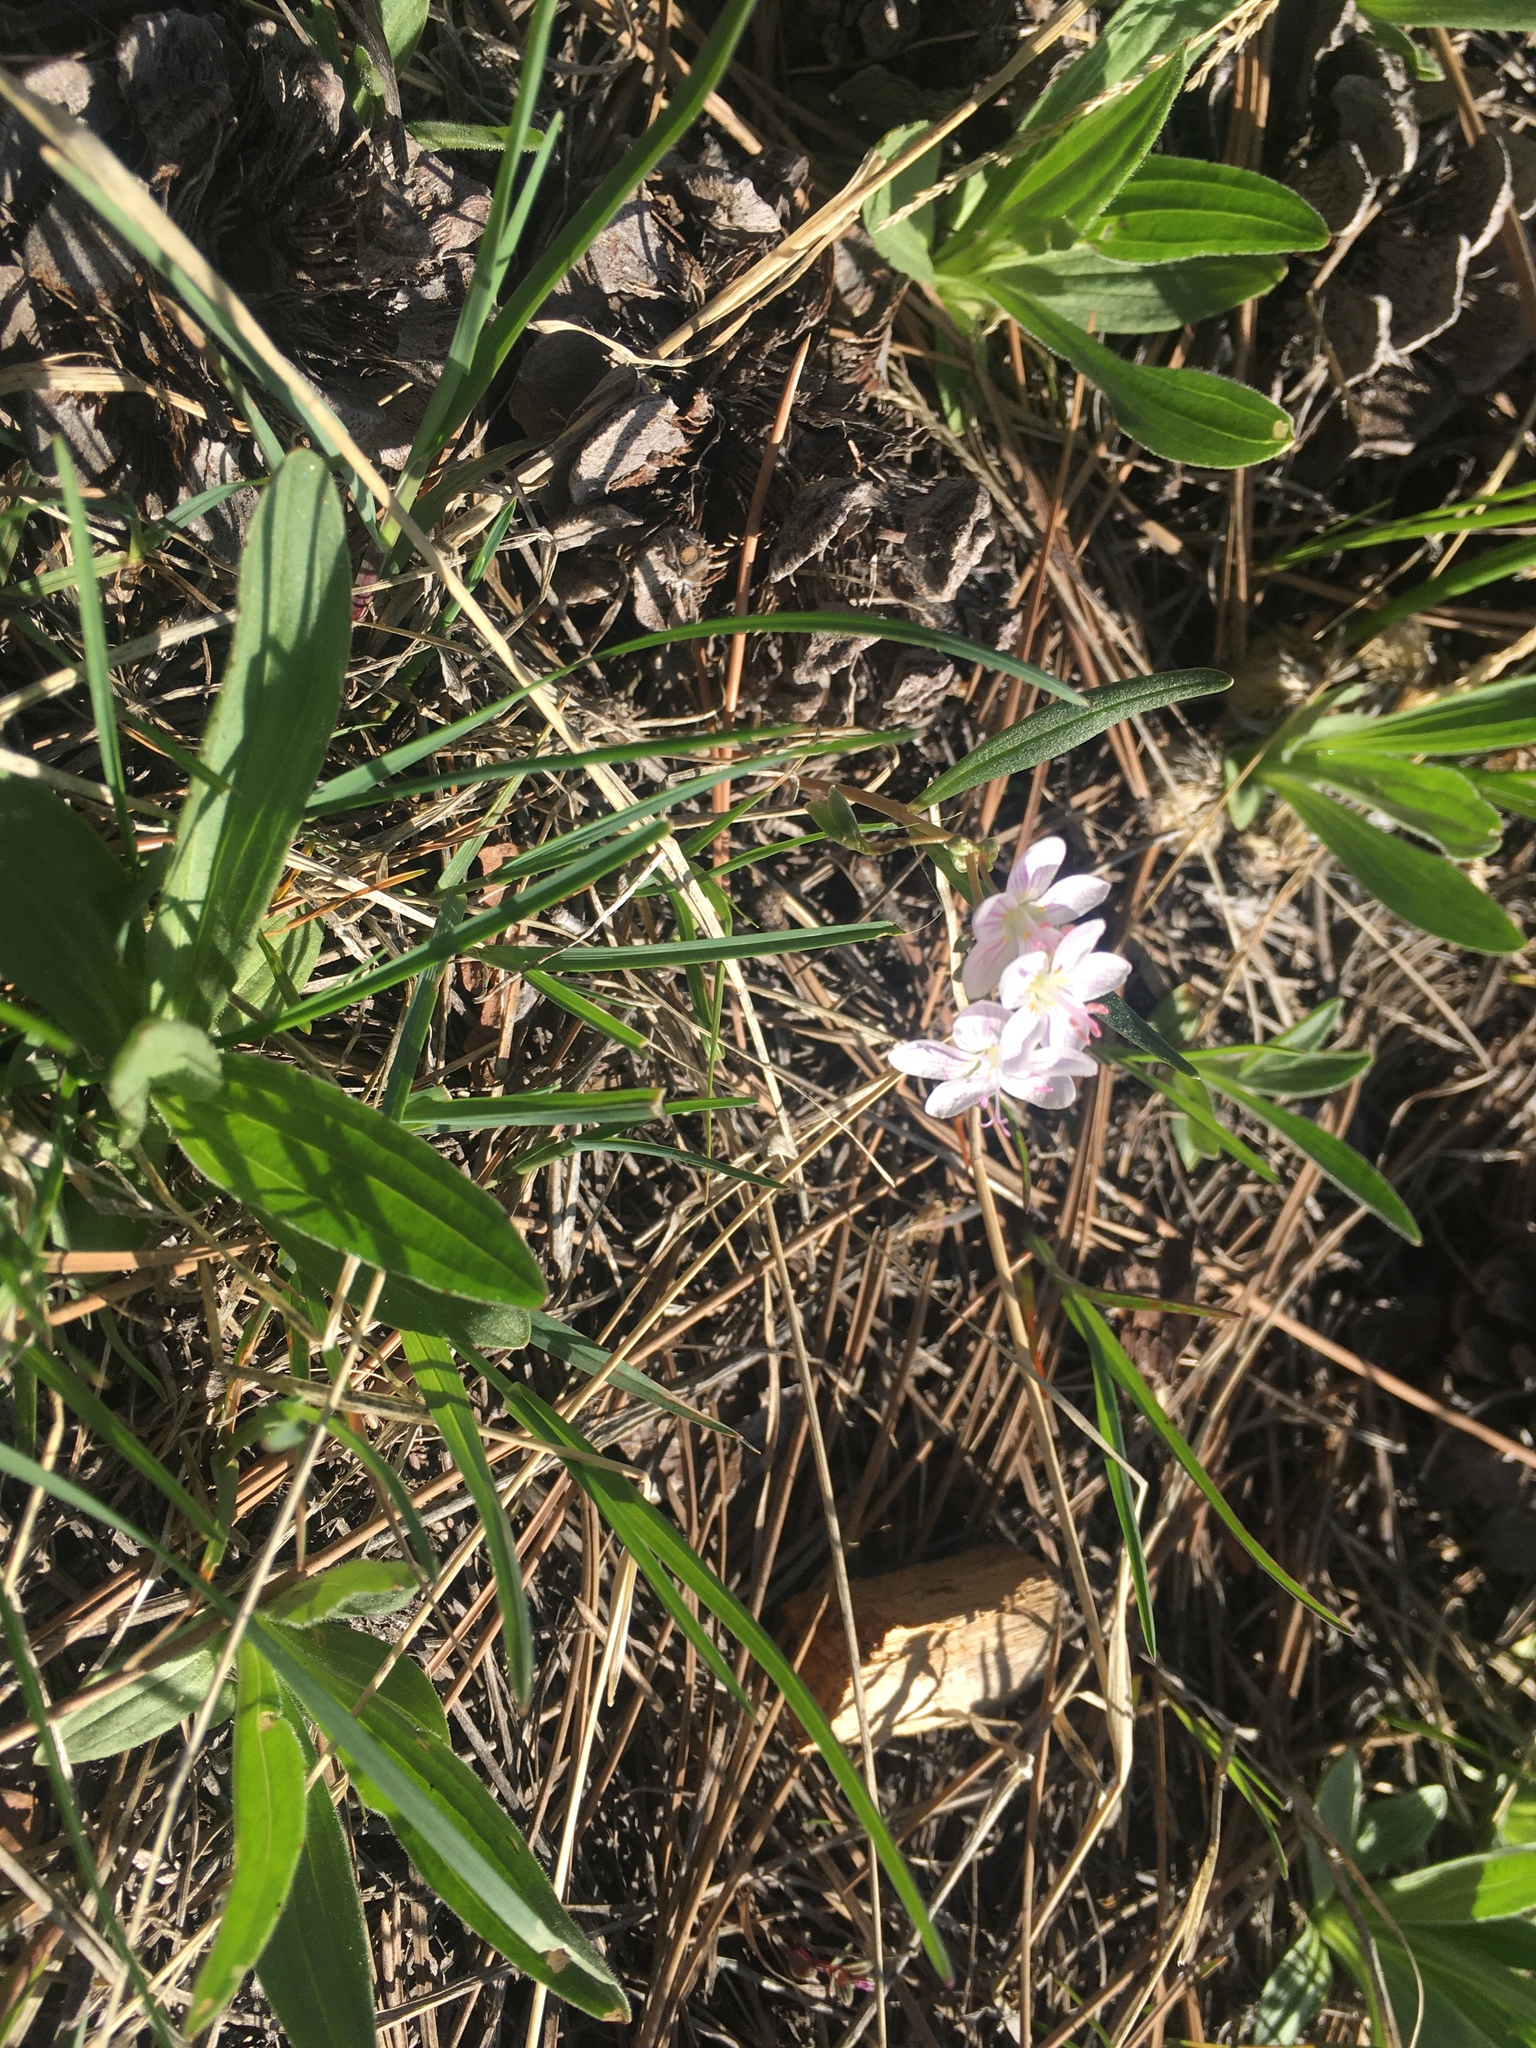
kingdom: Plantae
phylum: Tracheophyta
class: Magnoliopsida
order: Caryophyllales
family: Montiaceae
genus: Claytonia
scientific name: Claytonia rosea
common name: Rocky mountain spring-beauty
